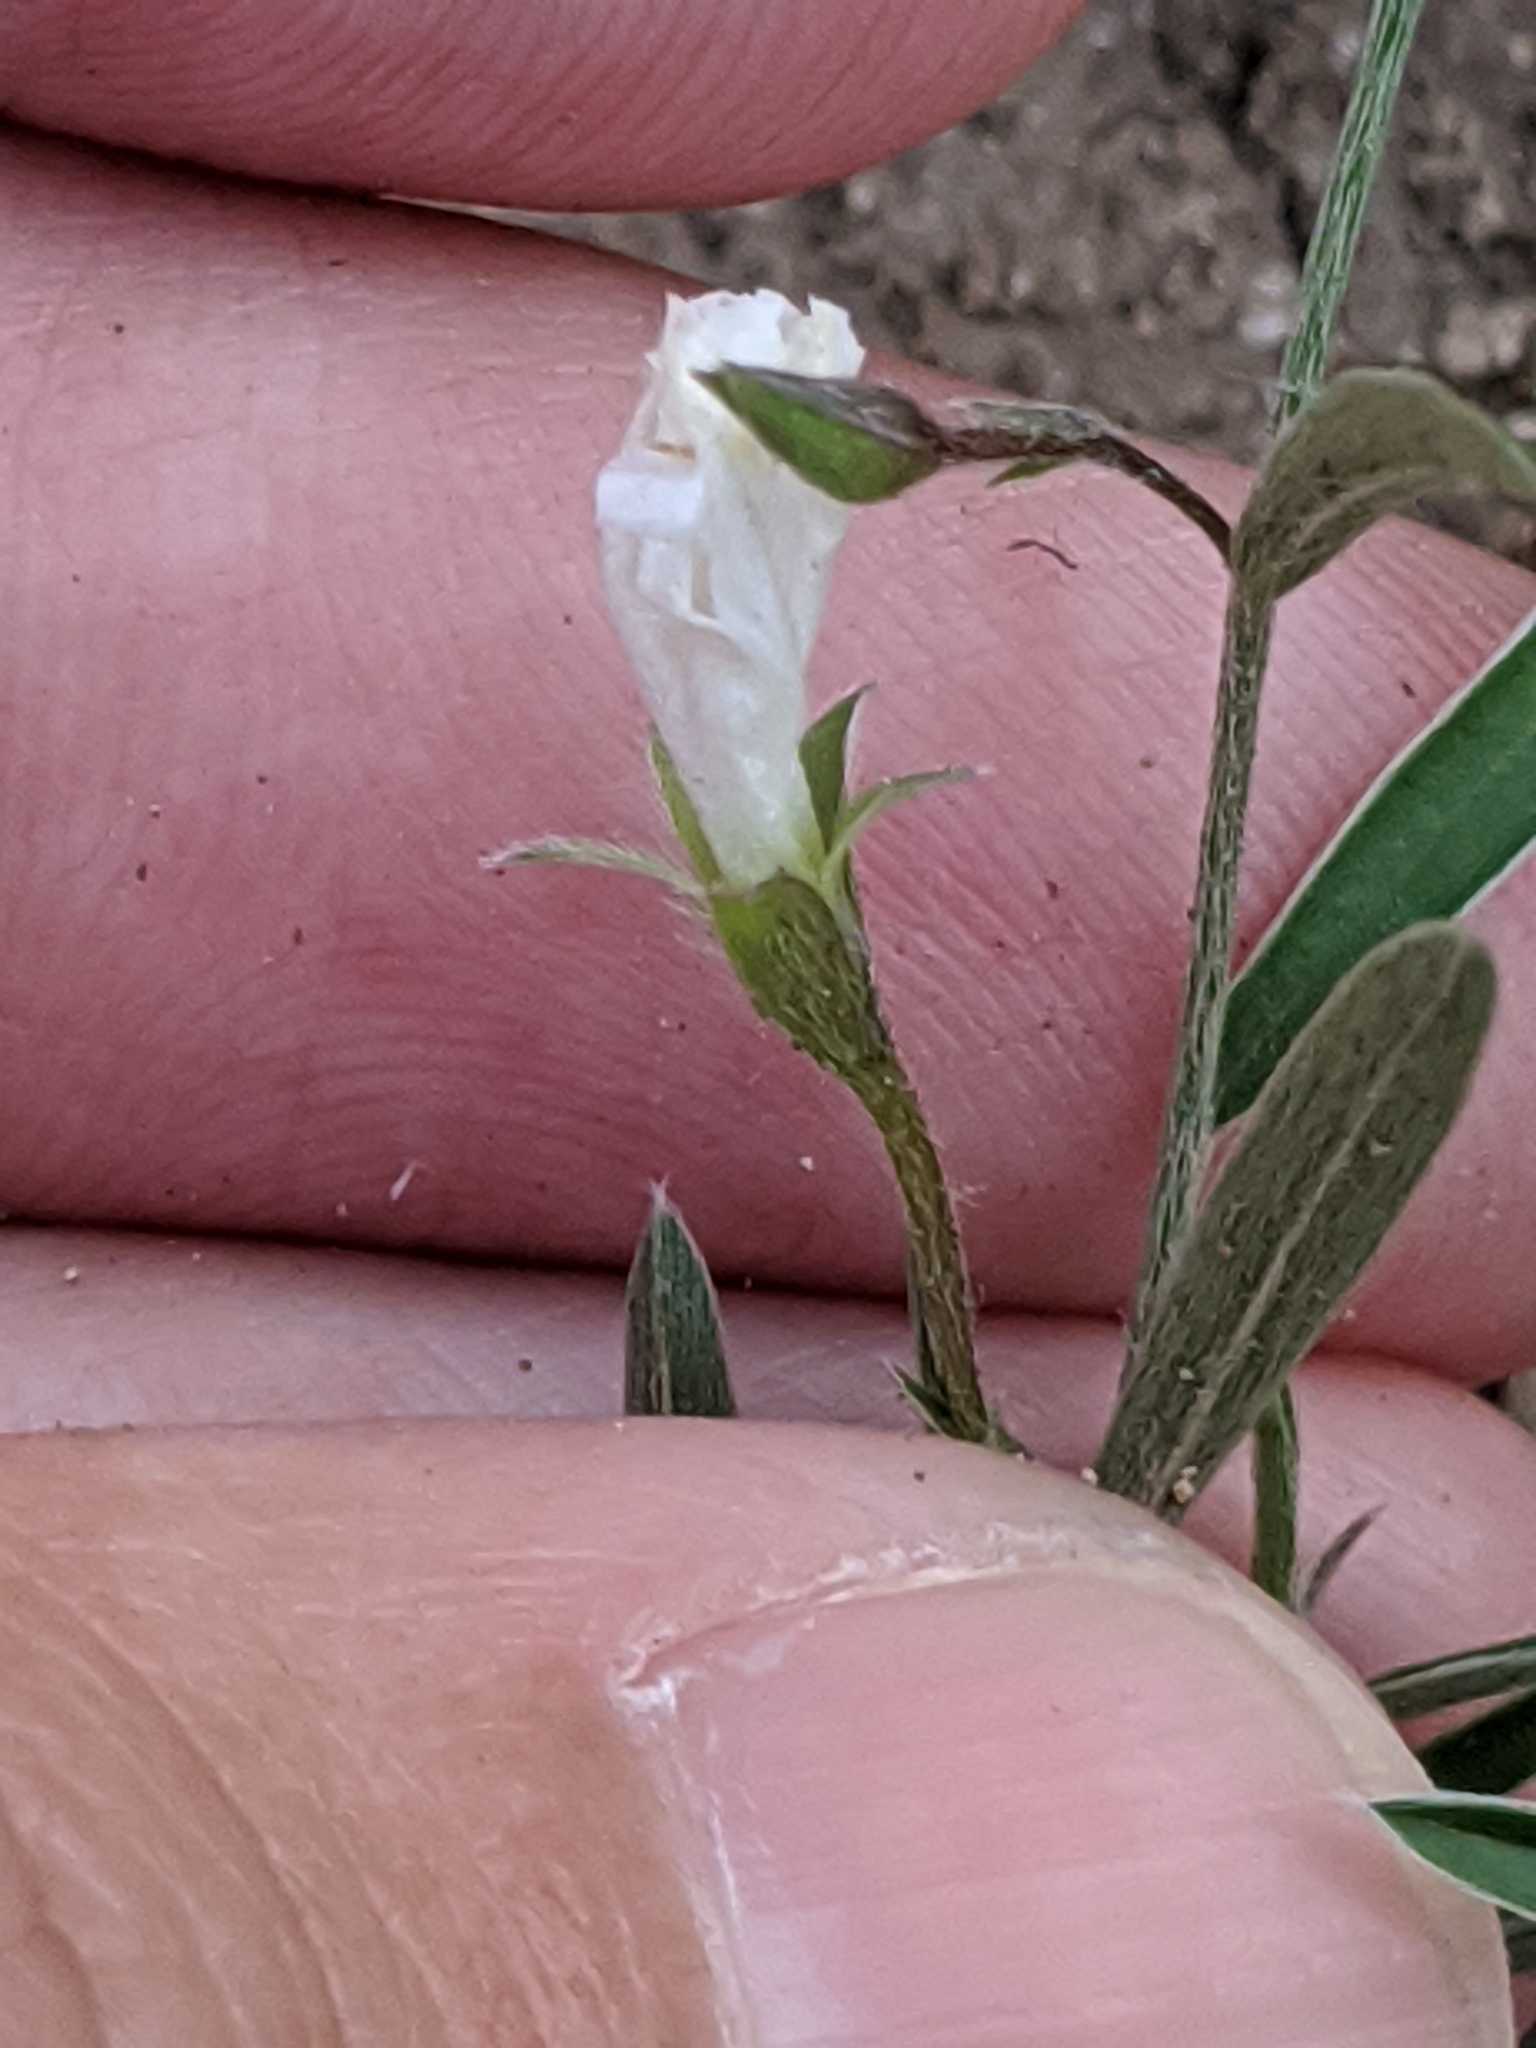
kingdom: Plantae
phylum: Tracheophyta
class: Magnoliopsida
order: Solanales
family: Convolvulaceae
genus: Evolvulus
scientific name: Evolvulus sericeus
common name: Blue dots
